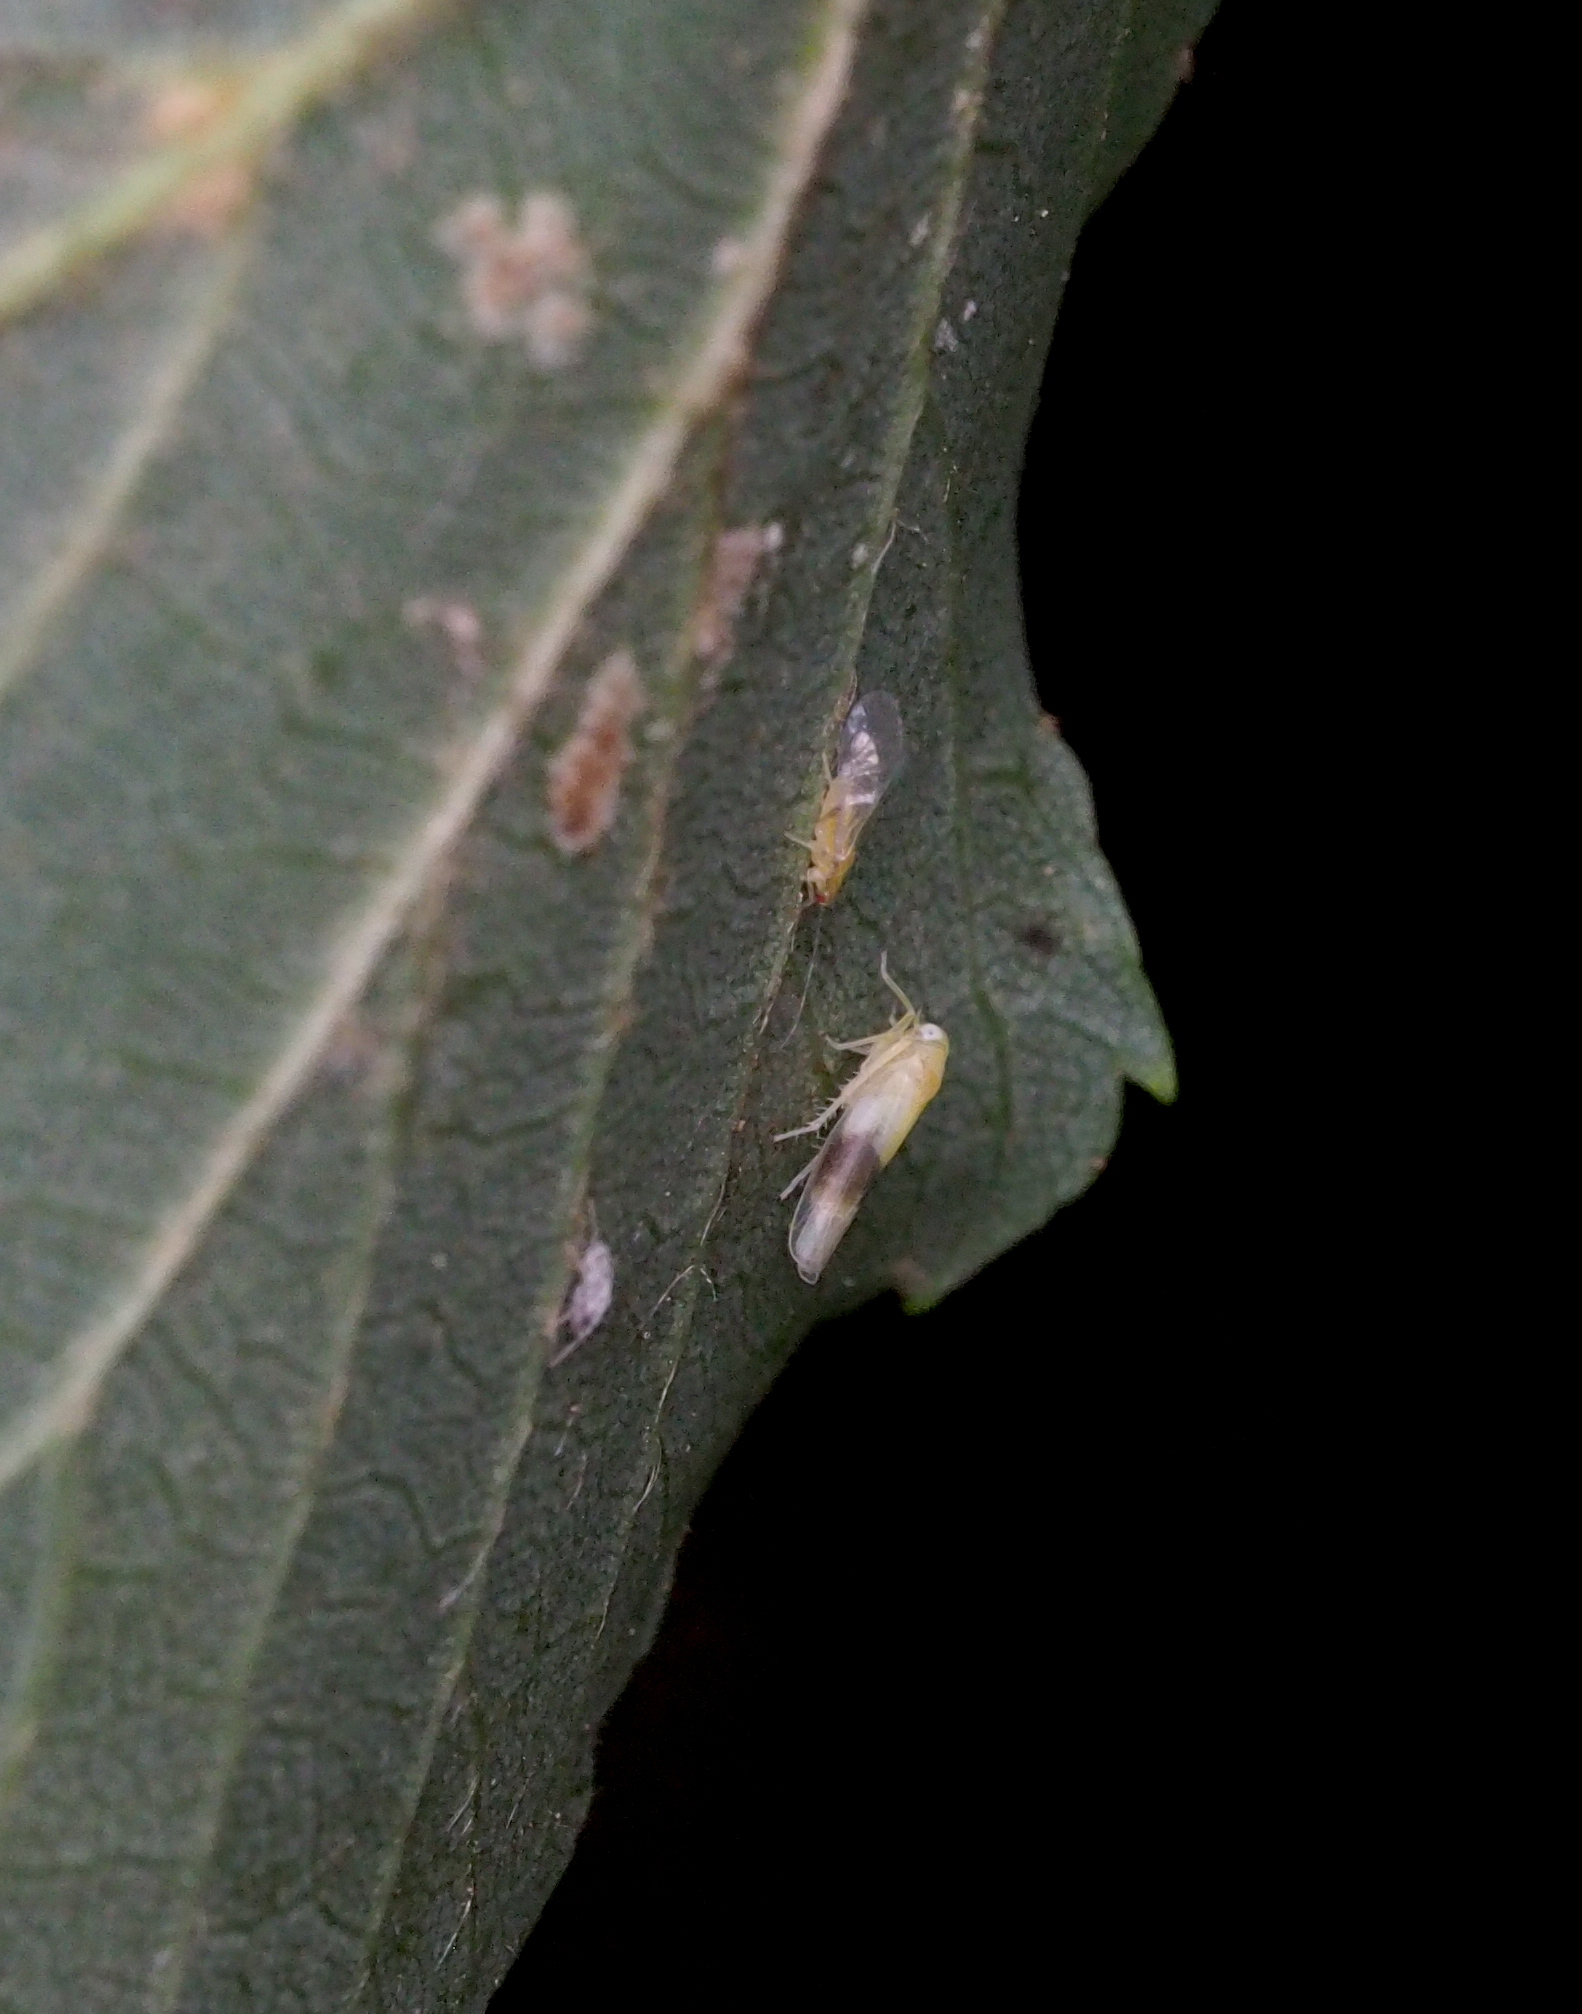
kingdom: Animalia
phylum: Arthropoda
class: Insecta
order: Hemiptera
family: Cicadellidae
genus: Alebra
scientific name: Alebra wahlbergi
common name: Leafhopper
